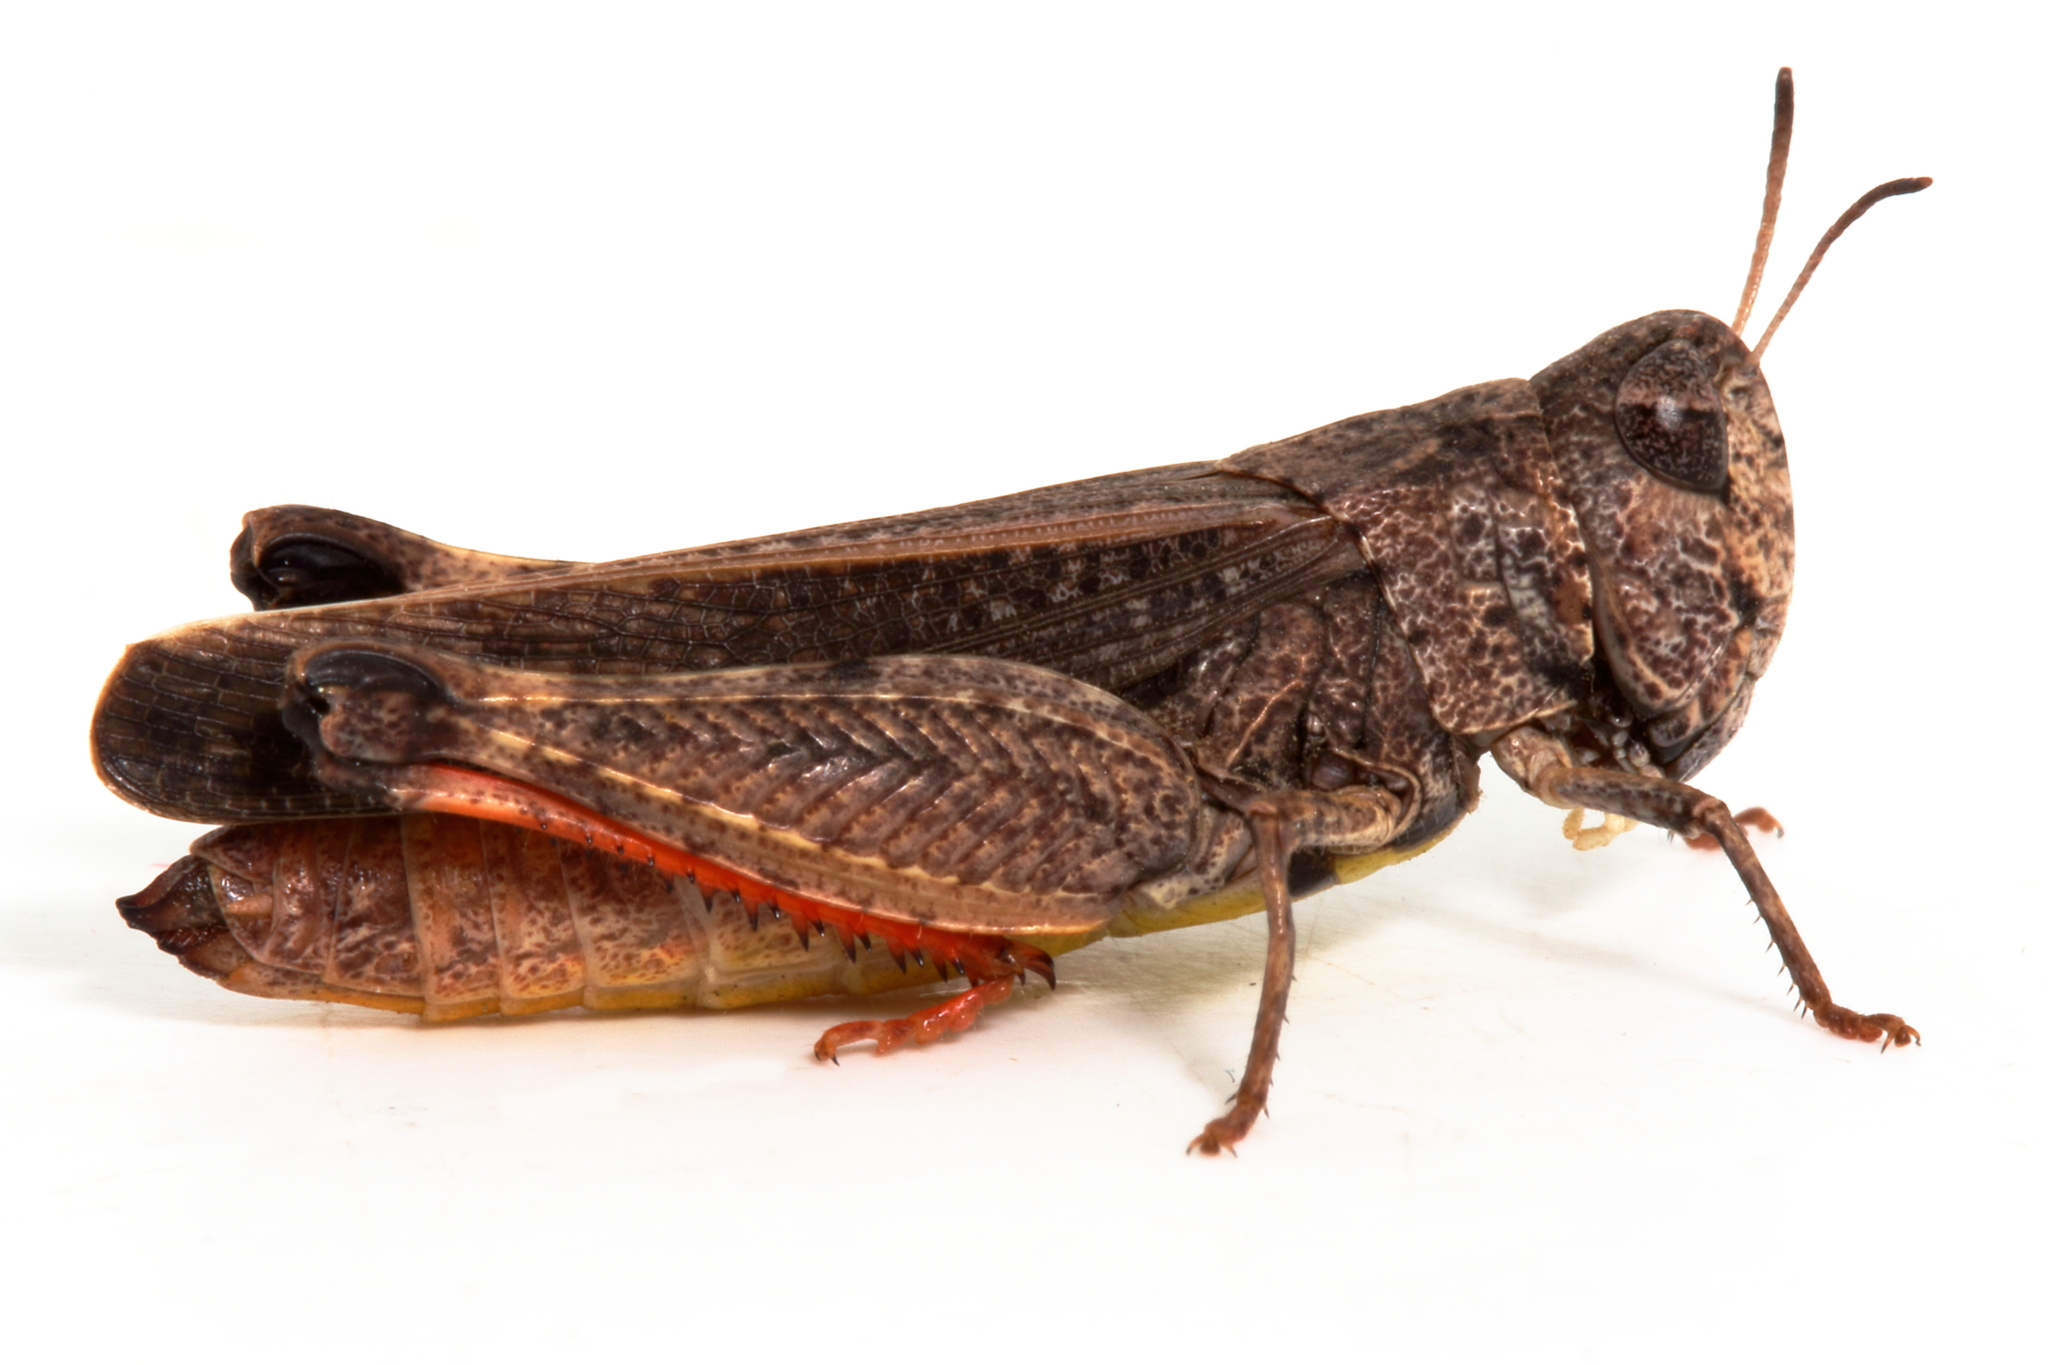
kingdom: Animalia
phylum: Arthropoda
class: Insecta
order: Orthoptera
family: Acrididae
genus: Cryptobothrus
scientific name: Cryptobothrus chrysophorus
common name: Golden bandwing
